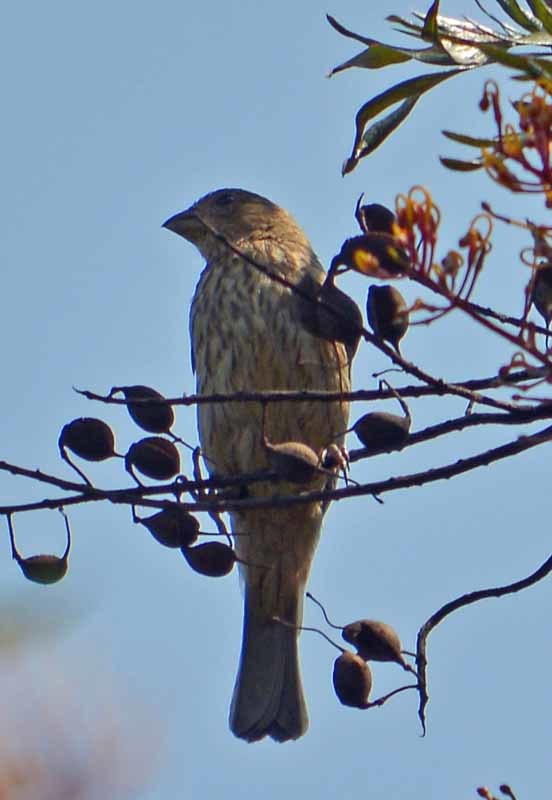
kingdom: Animalia
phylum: Chordata
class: Aves
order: Passeriformes
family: Fringillidae
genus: Haemorhous
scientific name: Haemorhous mexicanus
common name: House finch
